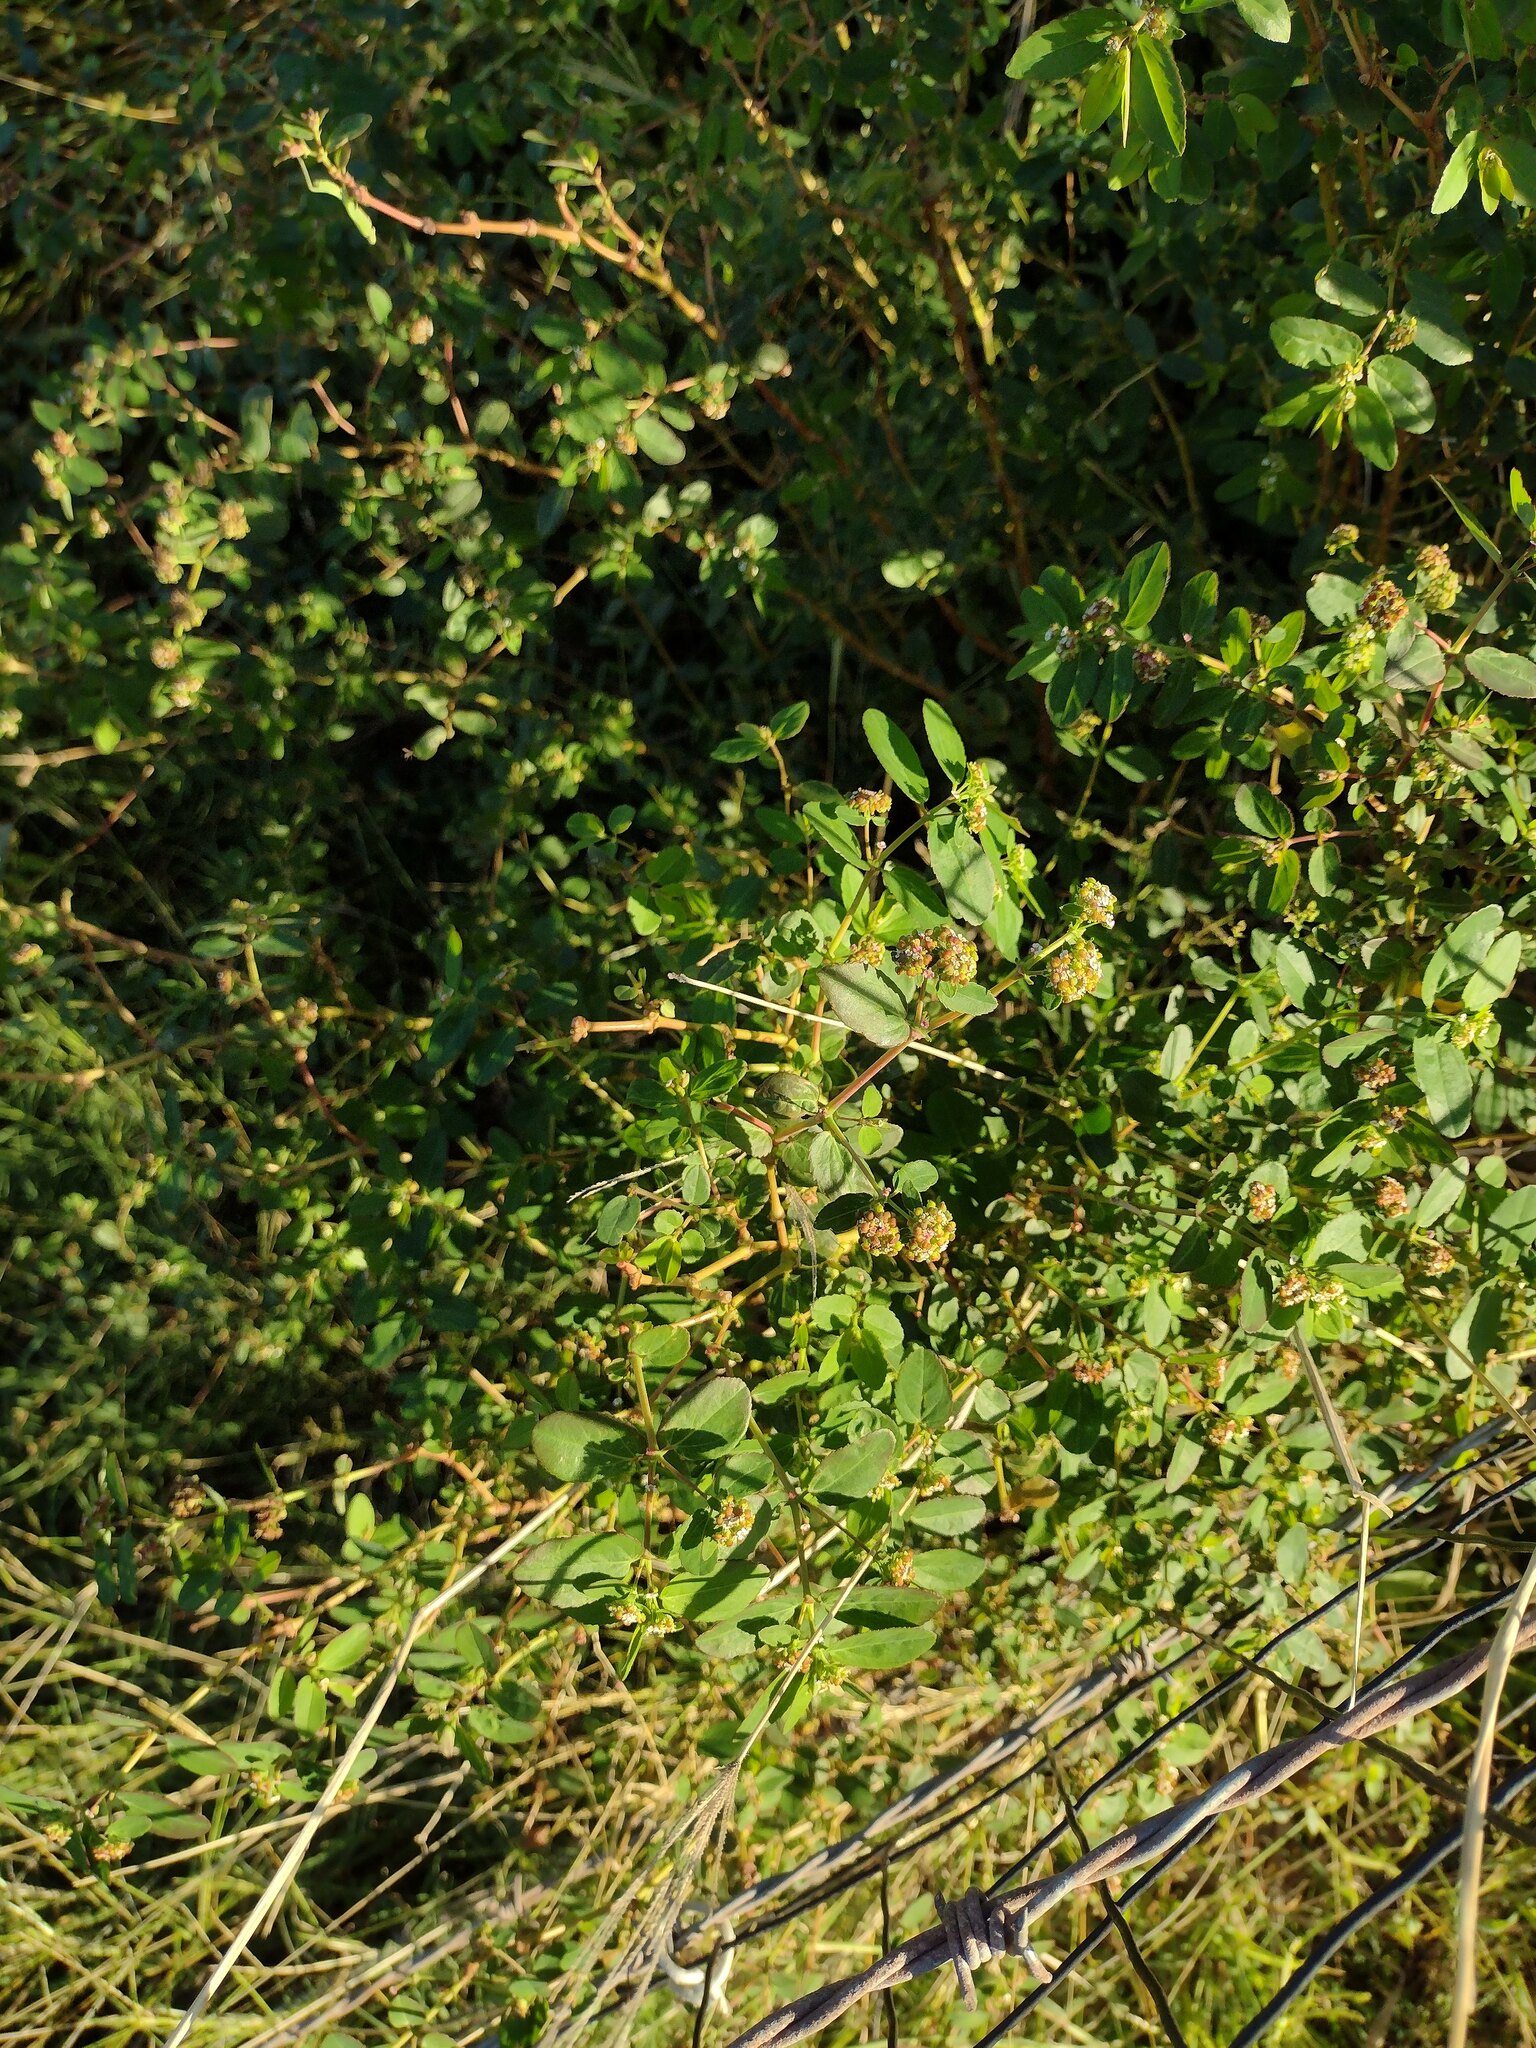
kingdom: Plantae
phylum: Tracheophyta
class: Magnoliopsida
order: Malpighiales
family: Euphorbiaceae
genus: Euphorbia
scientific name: Euphorbia hypericifolia
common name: Graceful sandmat
